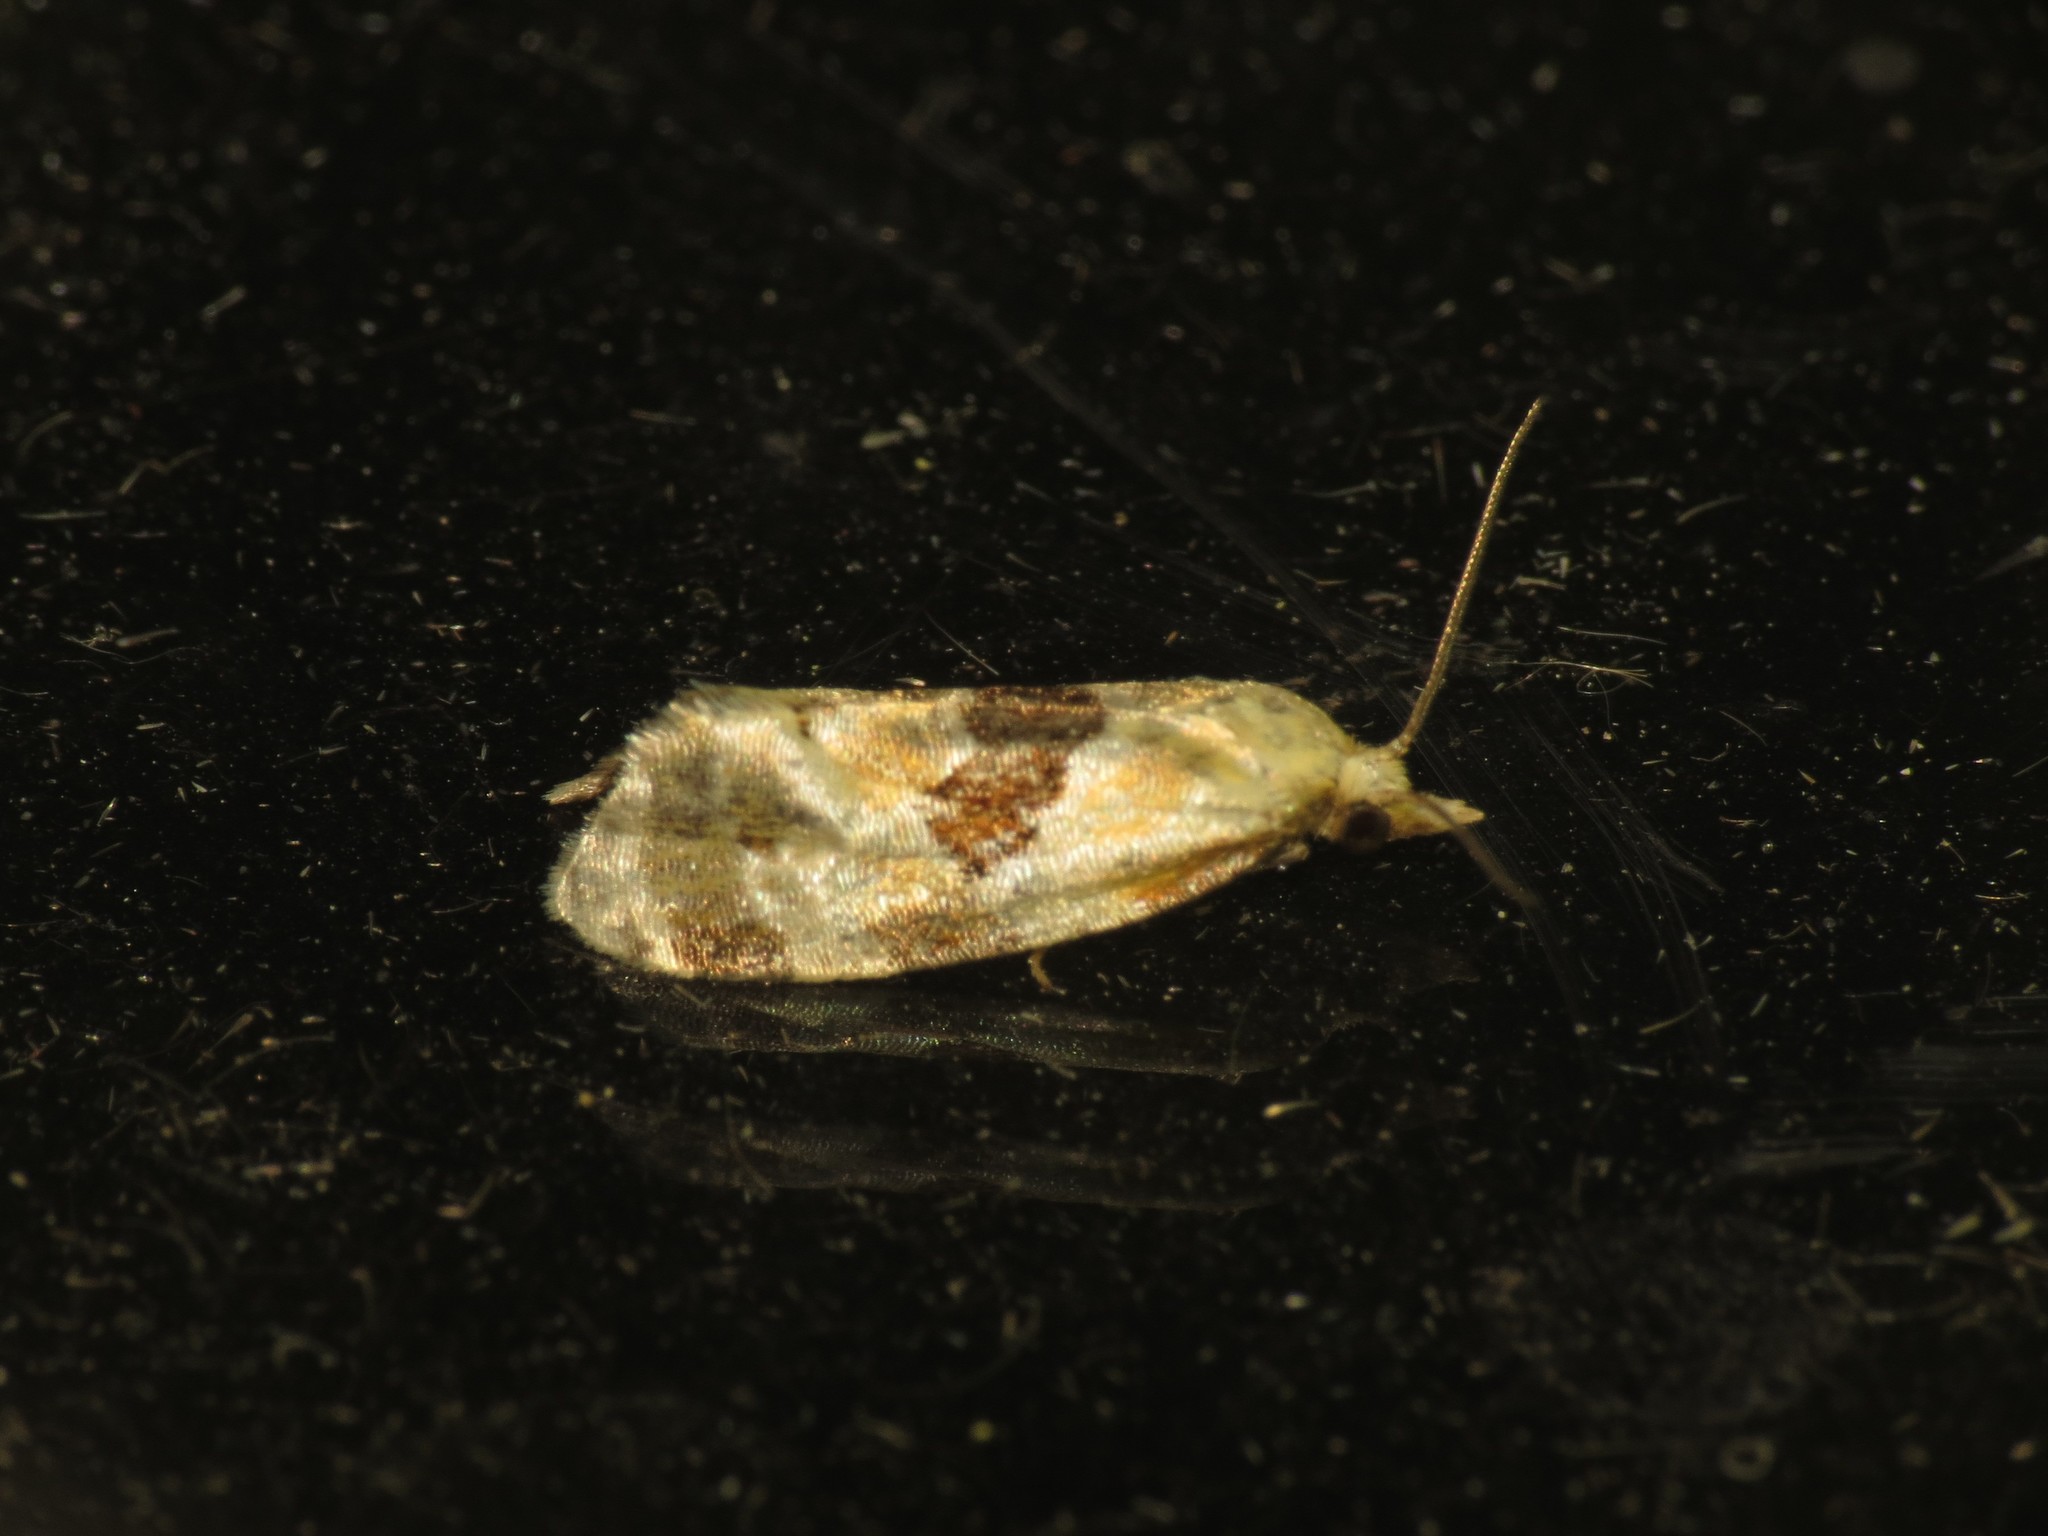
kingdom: Animalia
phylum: Arthropoda
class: Insecta
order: Lepidoptera
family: Tortricidae
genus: Aethes
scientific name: Aethes rubigana
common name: Burdock conch
